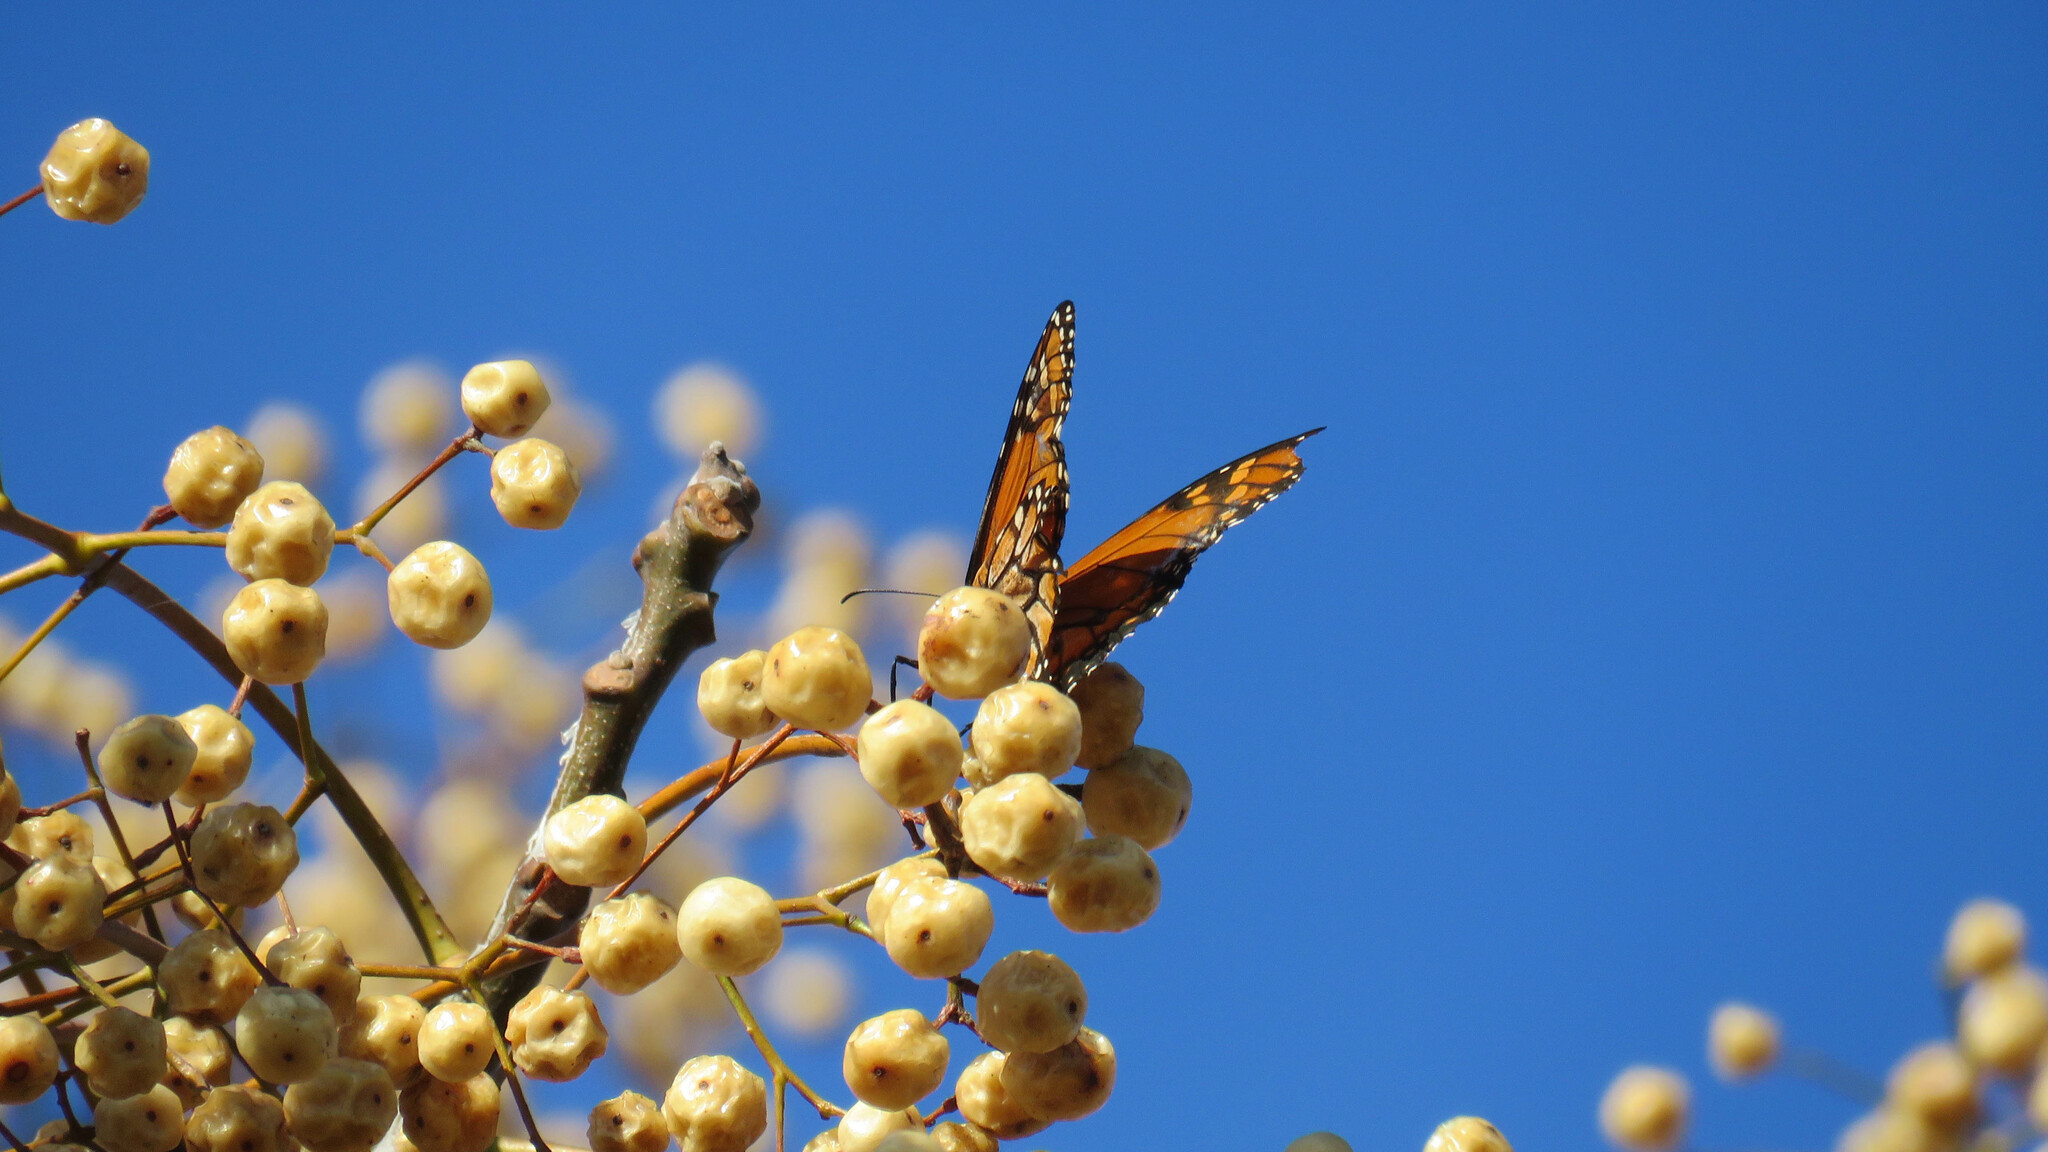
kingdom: Animalia
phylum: Arthropoda
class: Insecta
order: Lepidoptera
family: Nymphalidae
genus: Danaus
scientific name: Danaus erippus
